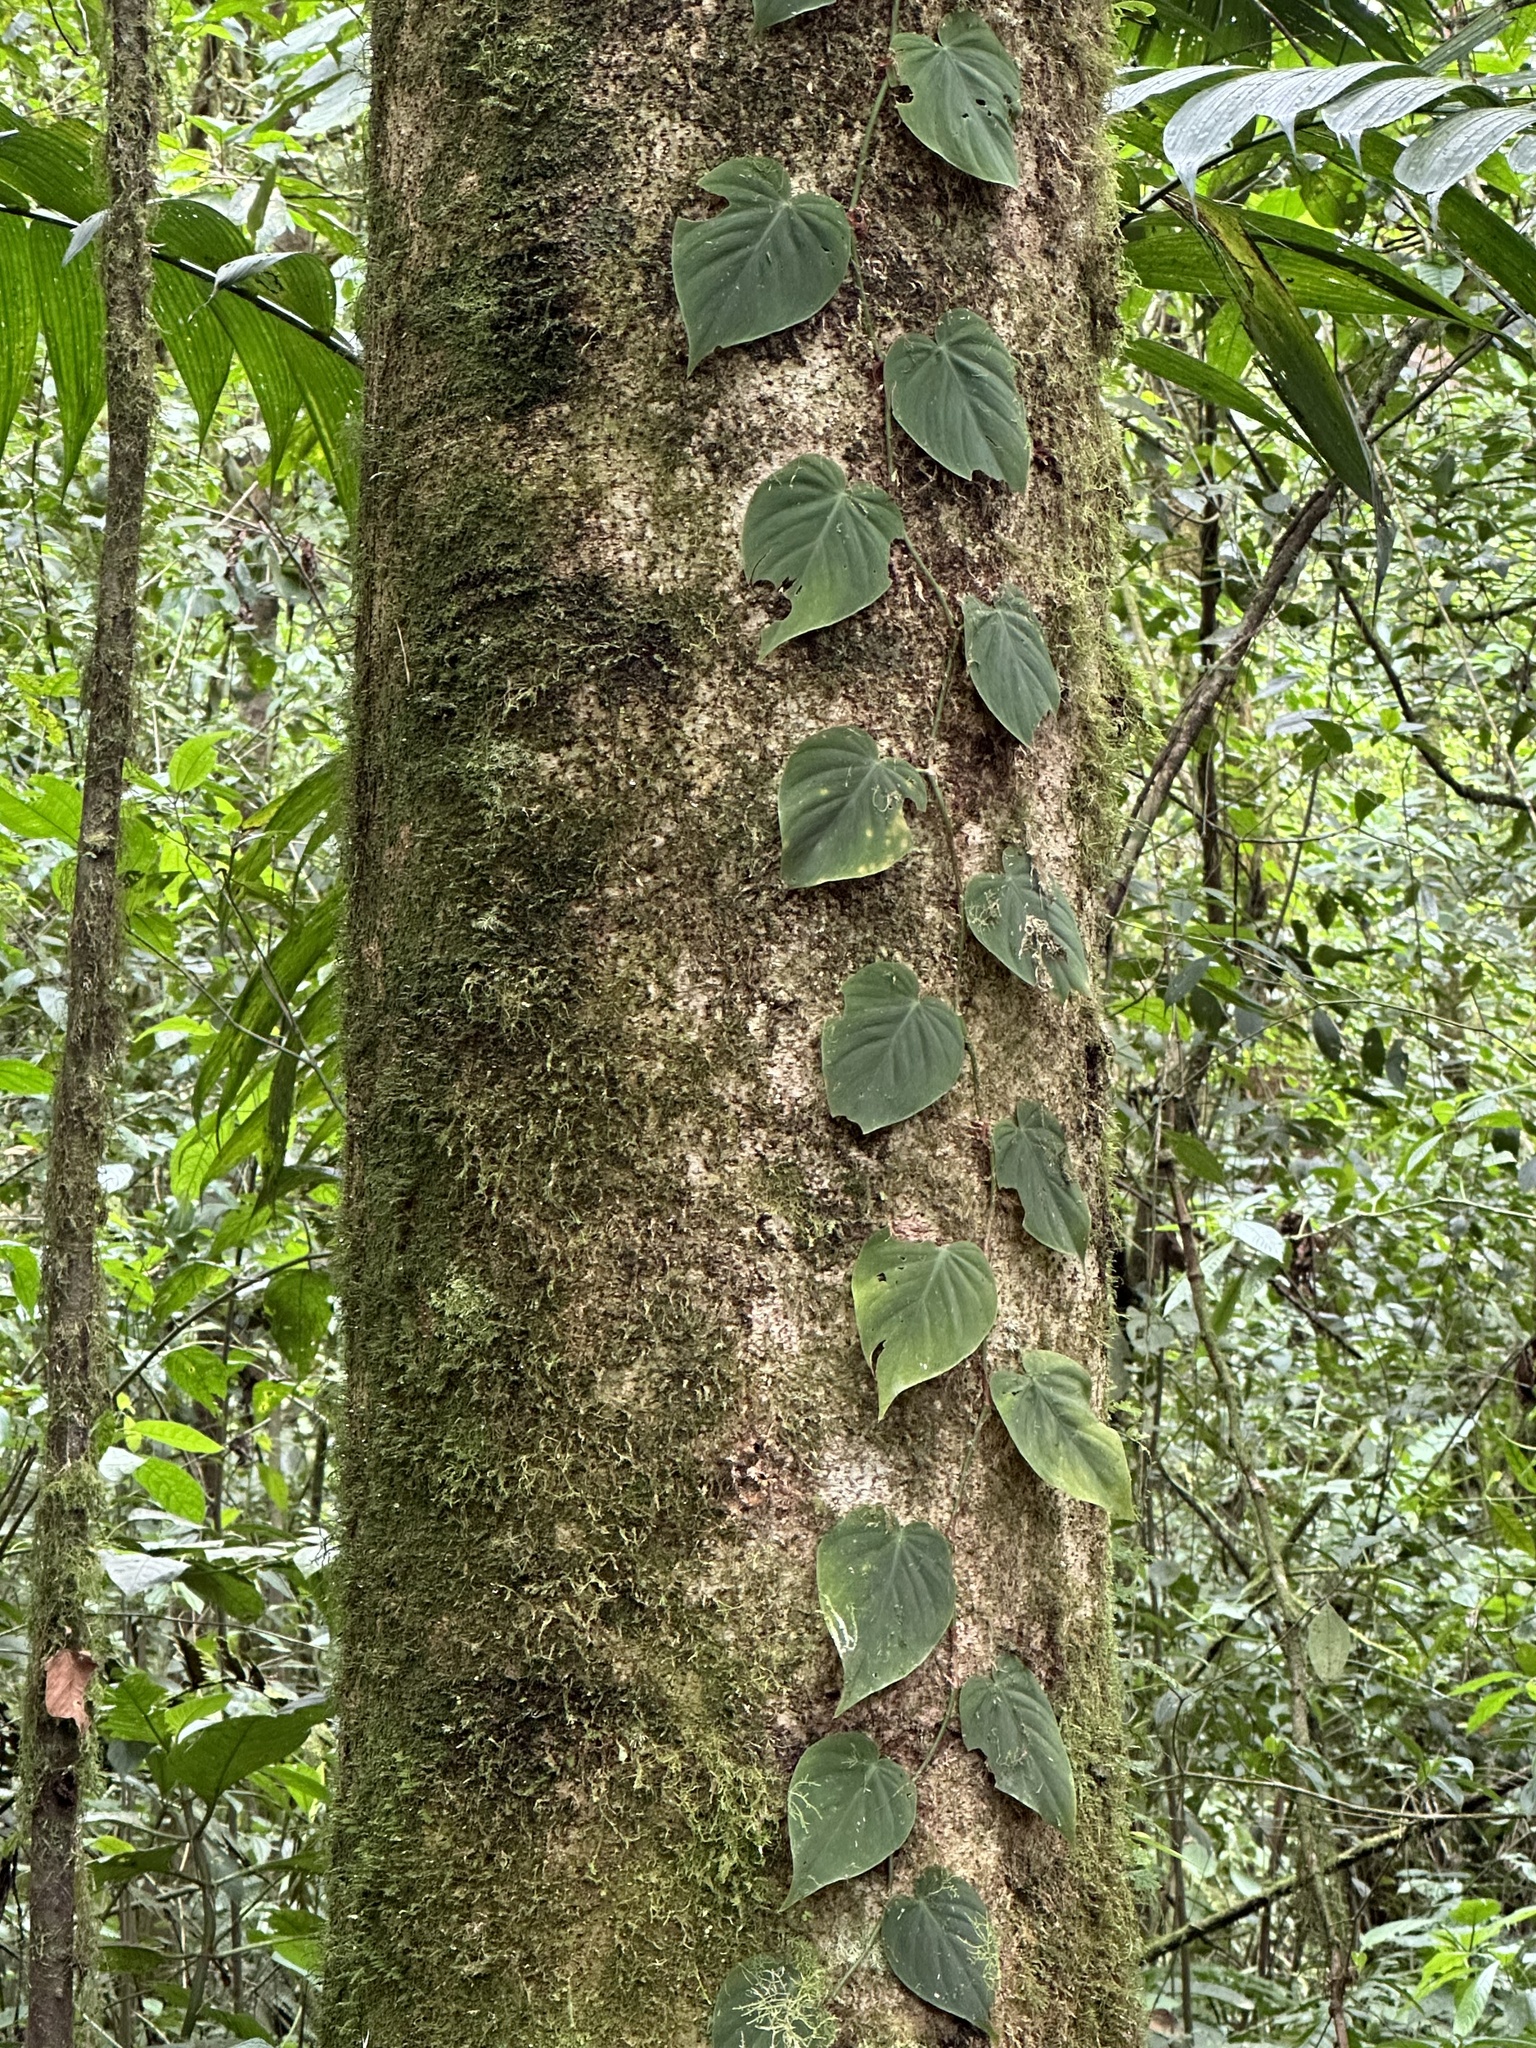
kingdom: Plantae
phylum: Tracheophyta
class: Liliopsida
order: Alismatales
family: Araceae
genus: Philodendron
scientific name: Philodendron hederaceum
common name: Vilevine
